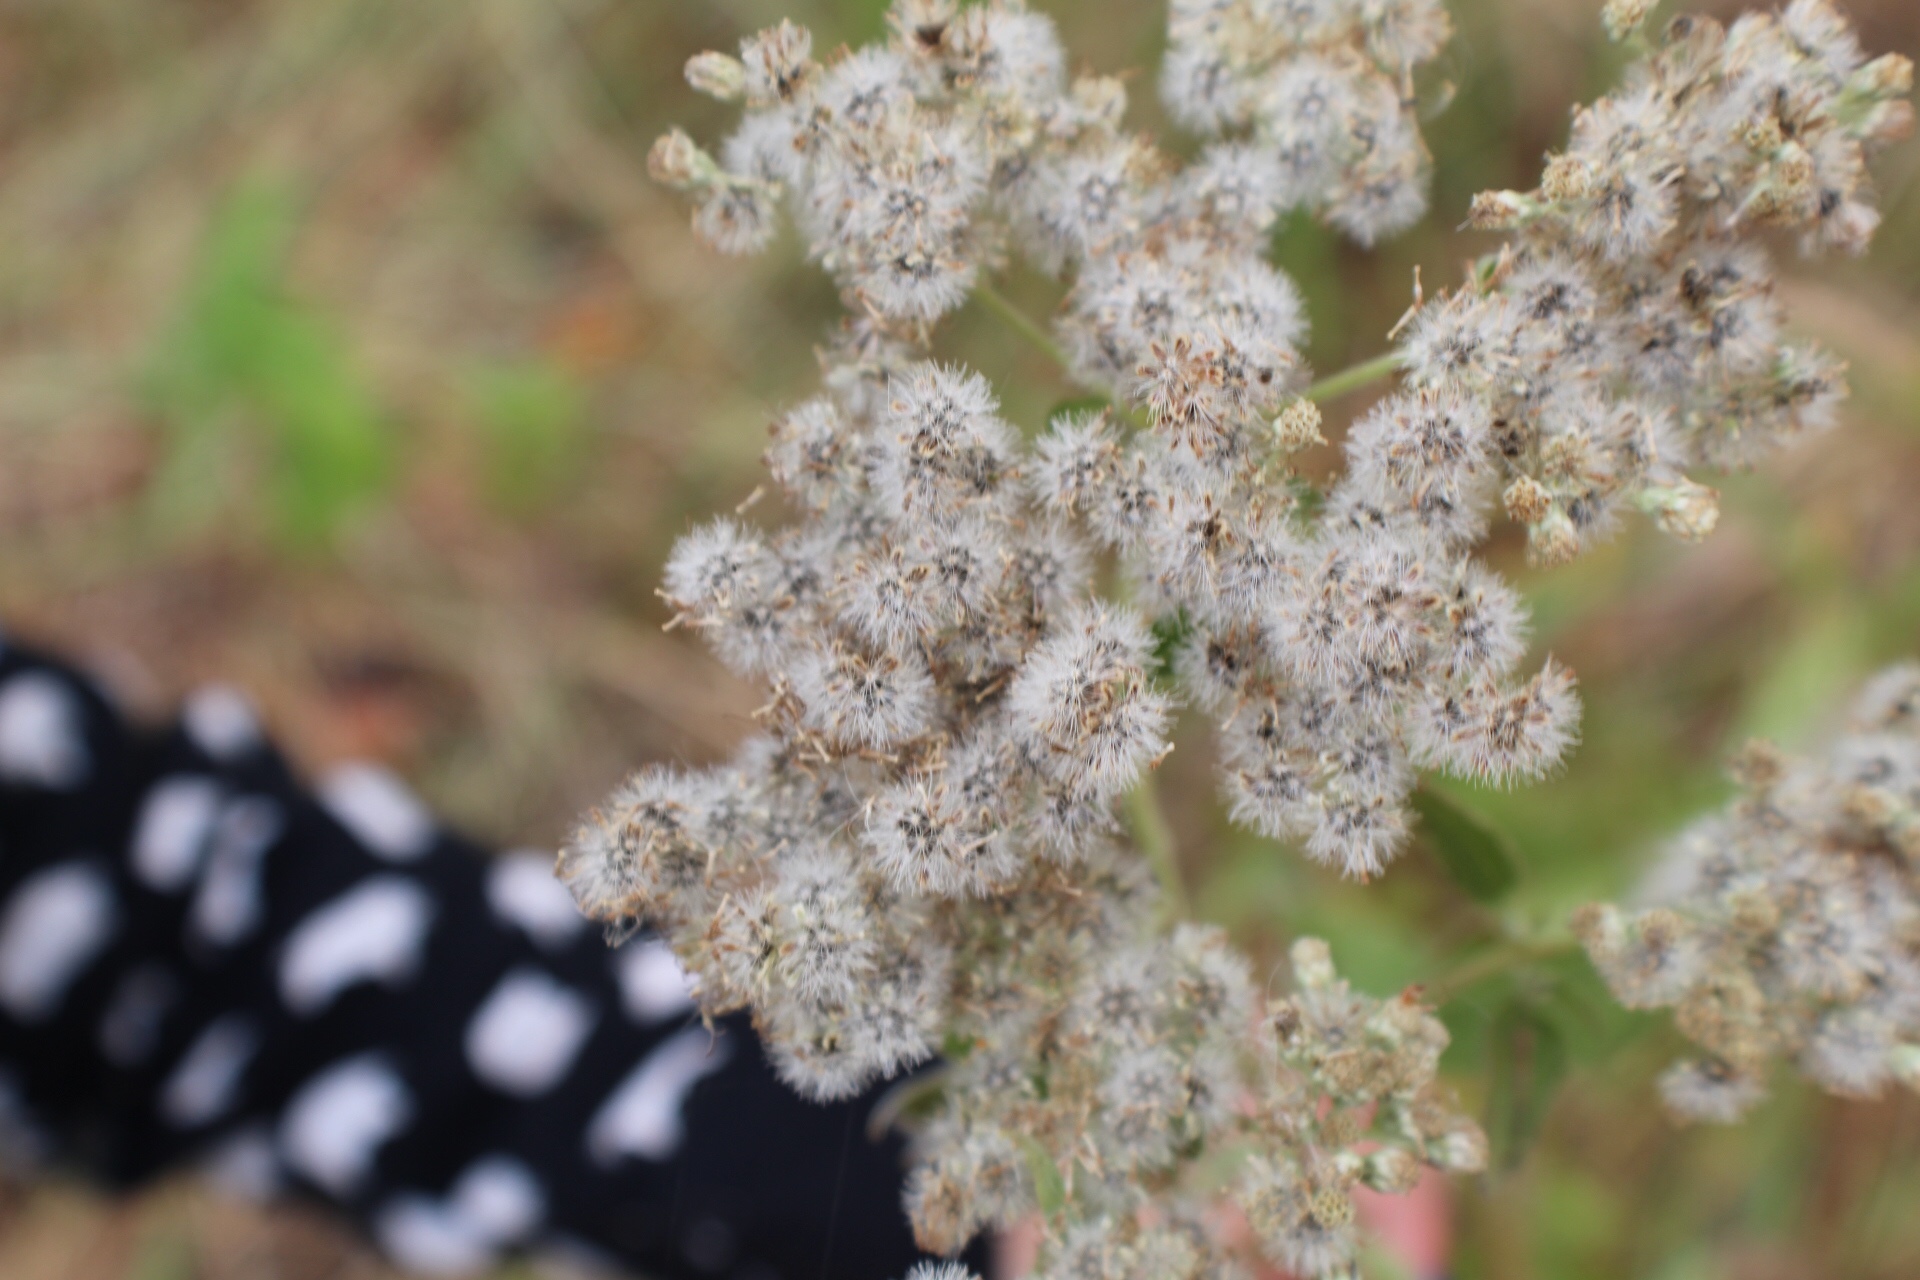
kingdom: Plantae
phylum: Tracheophyta
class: Magnoliopsida
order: Asterales
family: Asteraceae
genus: Eupatorium
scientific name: Eupatorium serotinum
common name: Late boneset
